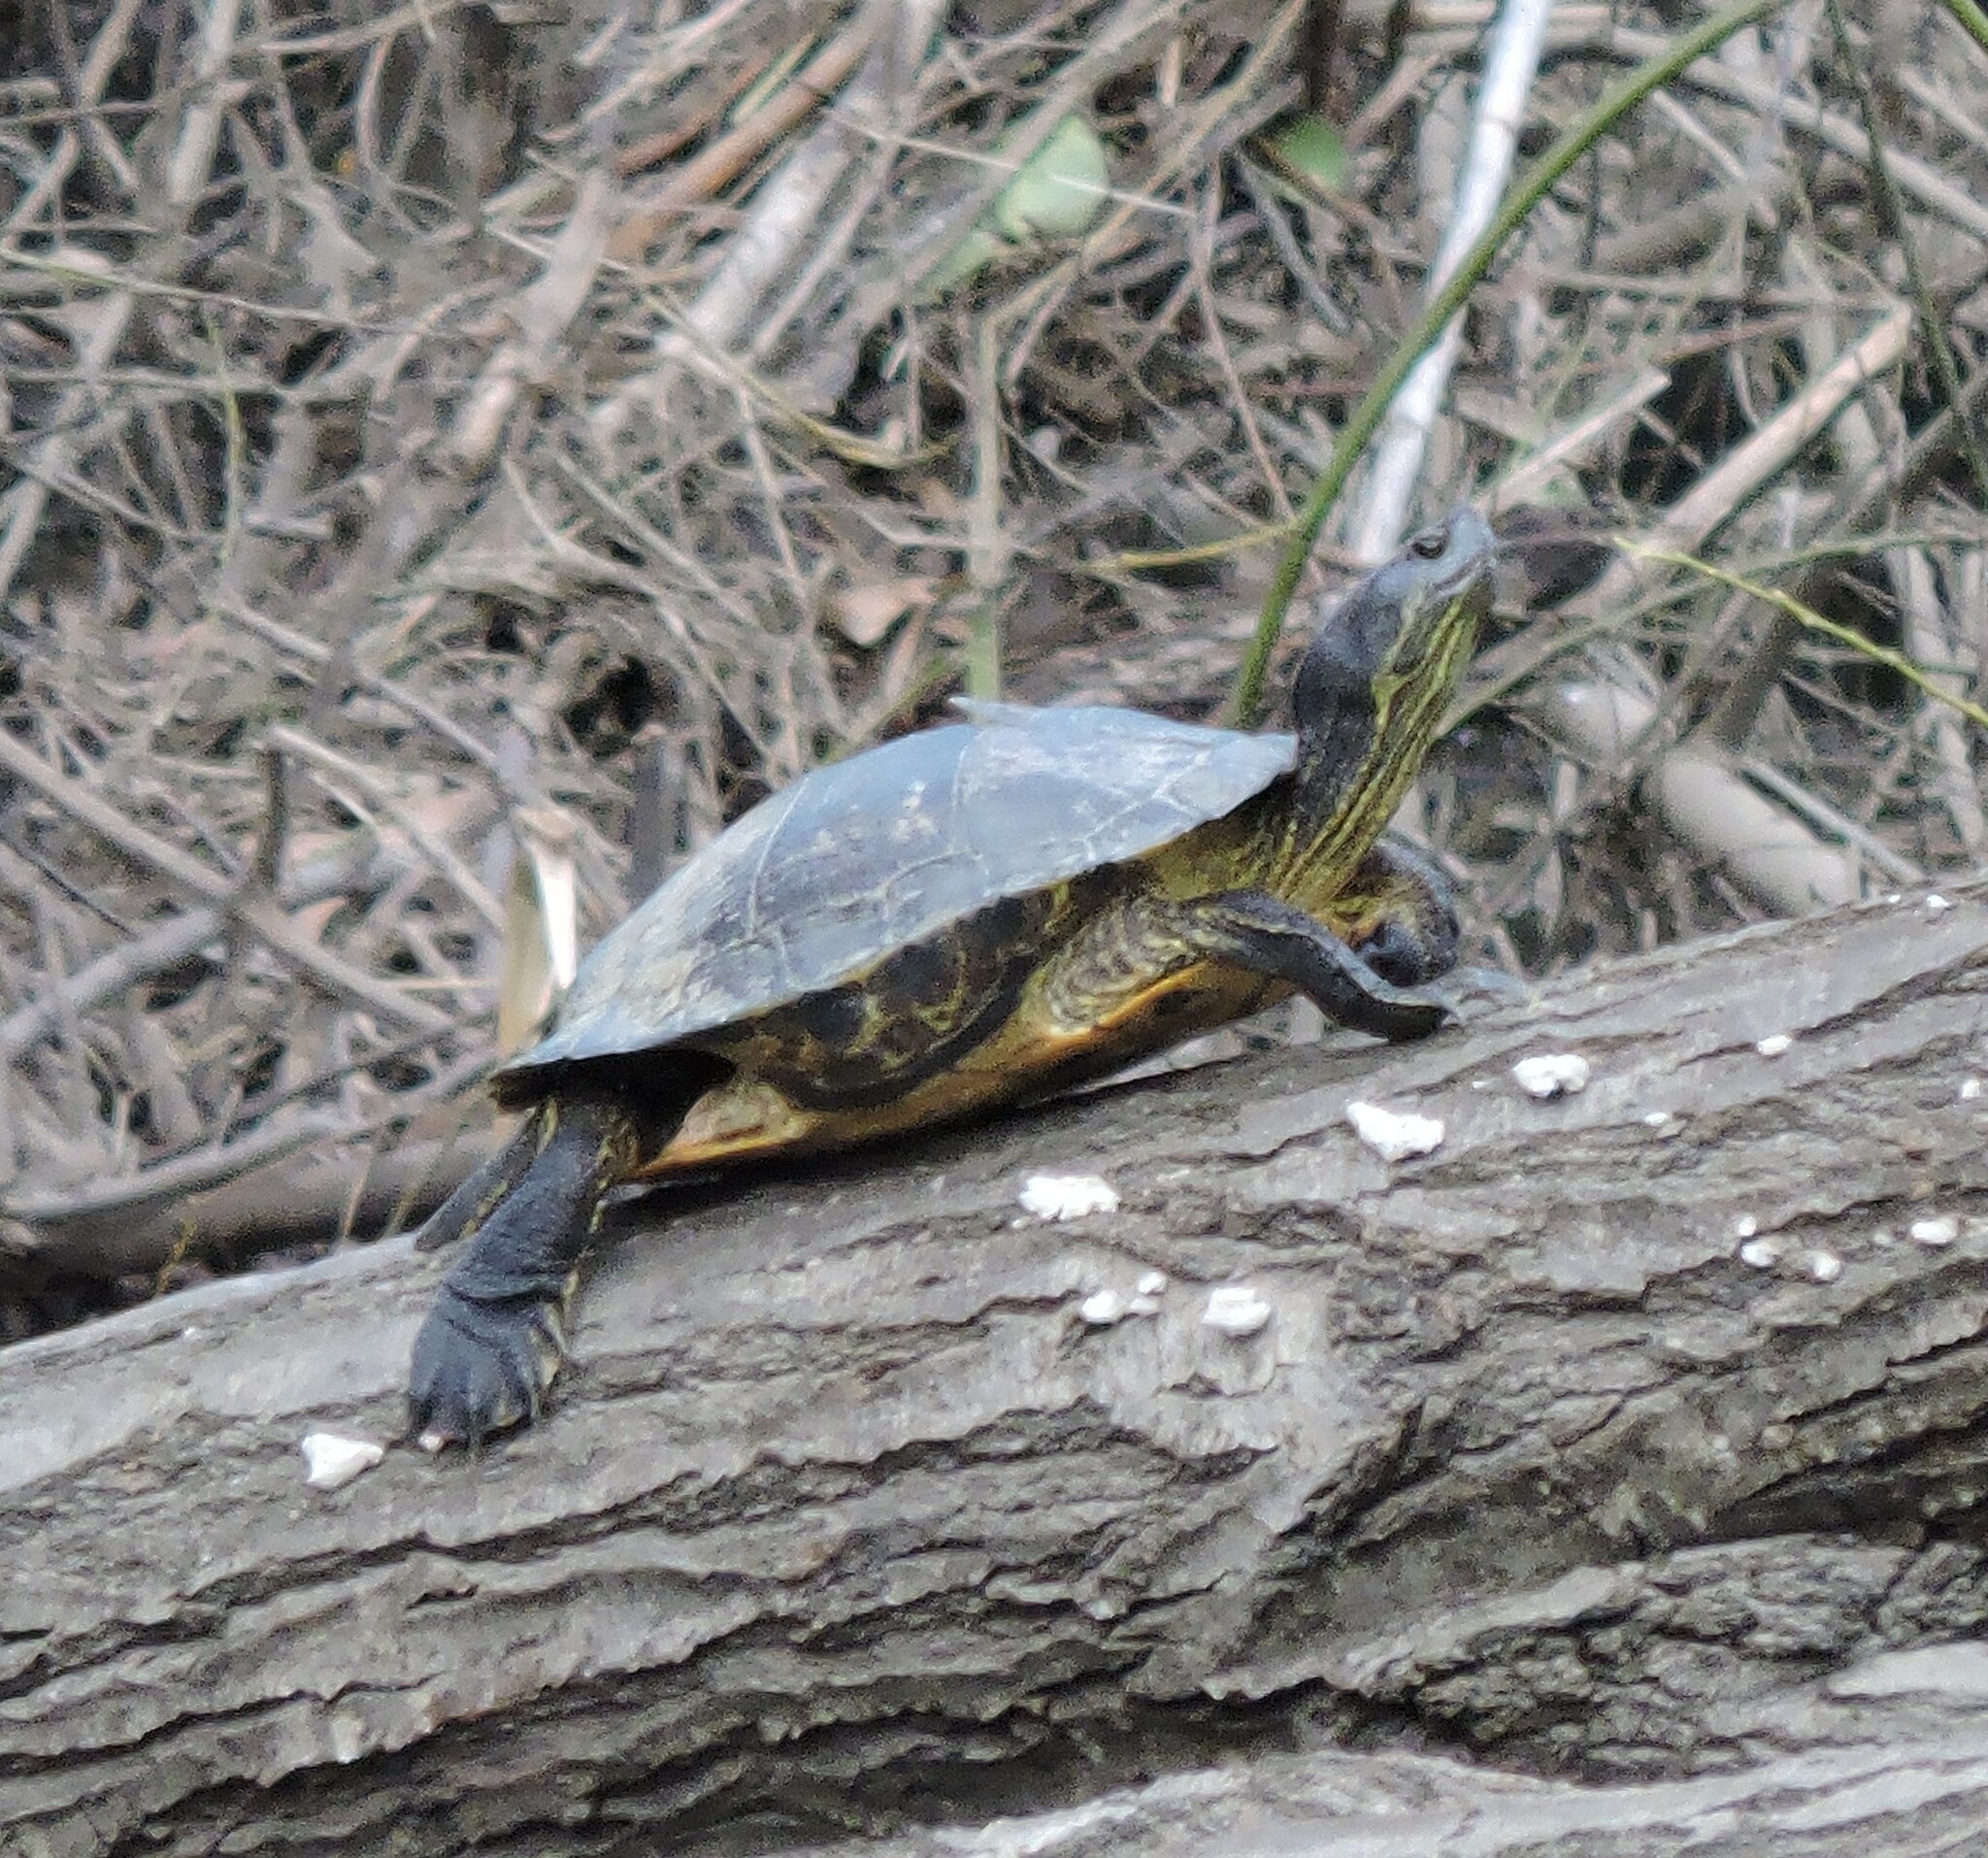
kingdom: Animalia
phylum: Chordata
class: Testudines
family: Emydidae
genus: Trachemys
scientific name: Trachemys scripta
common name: Slider
